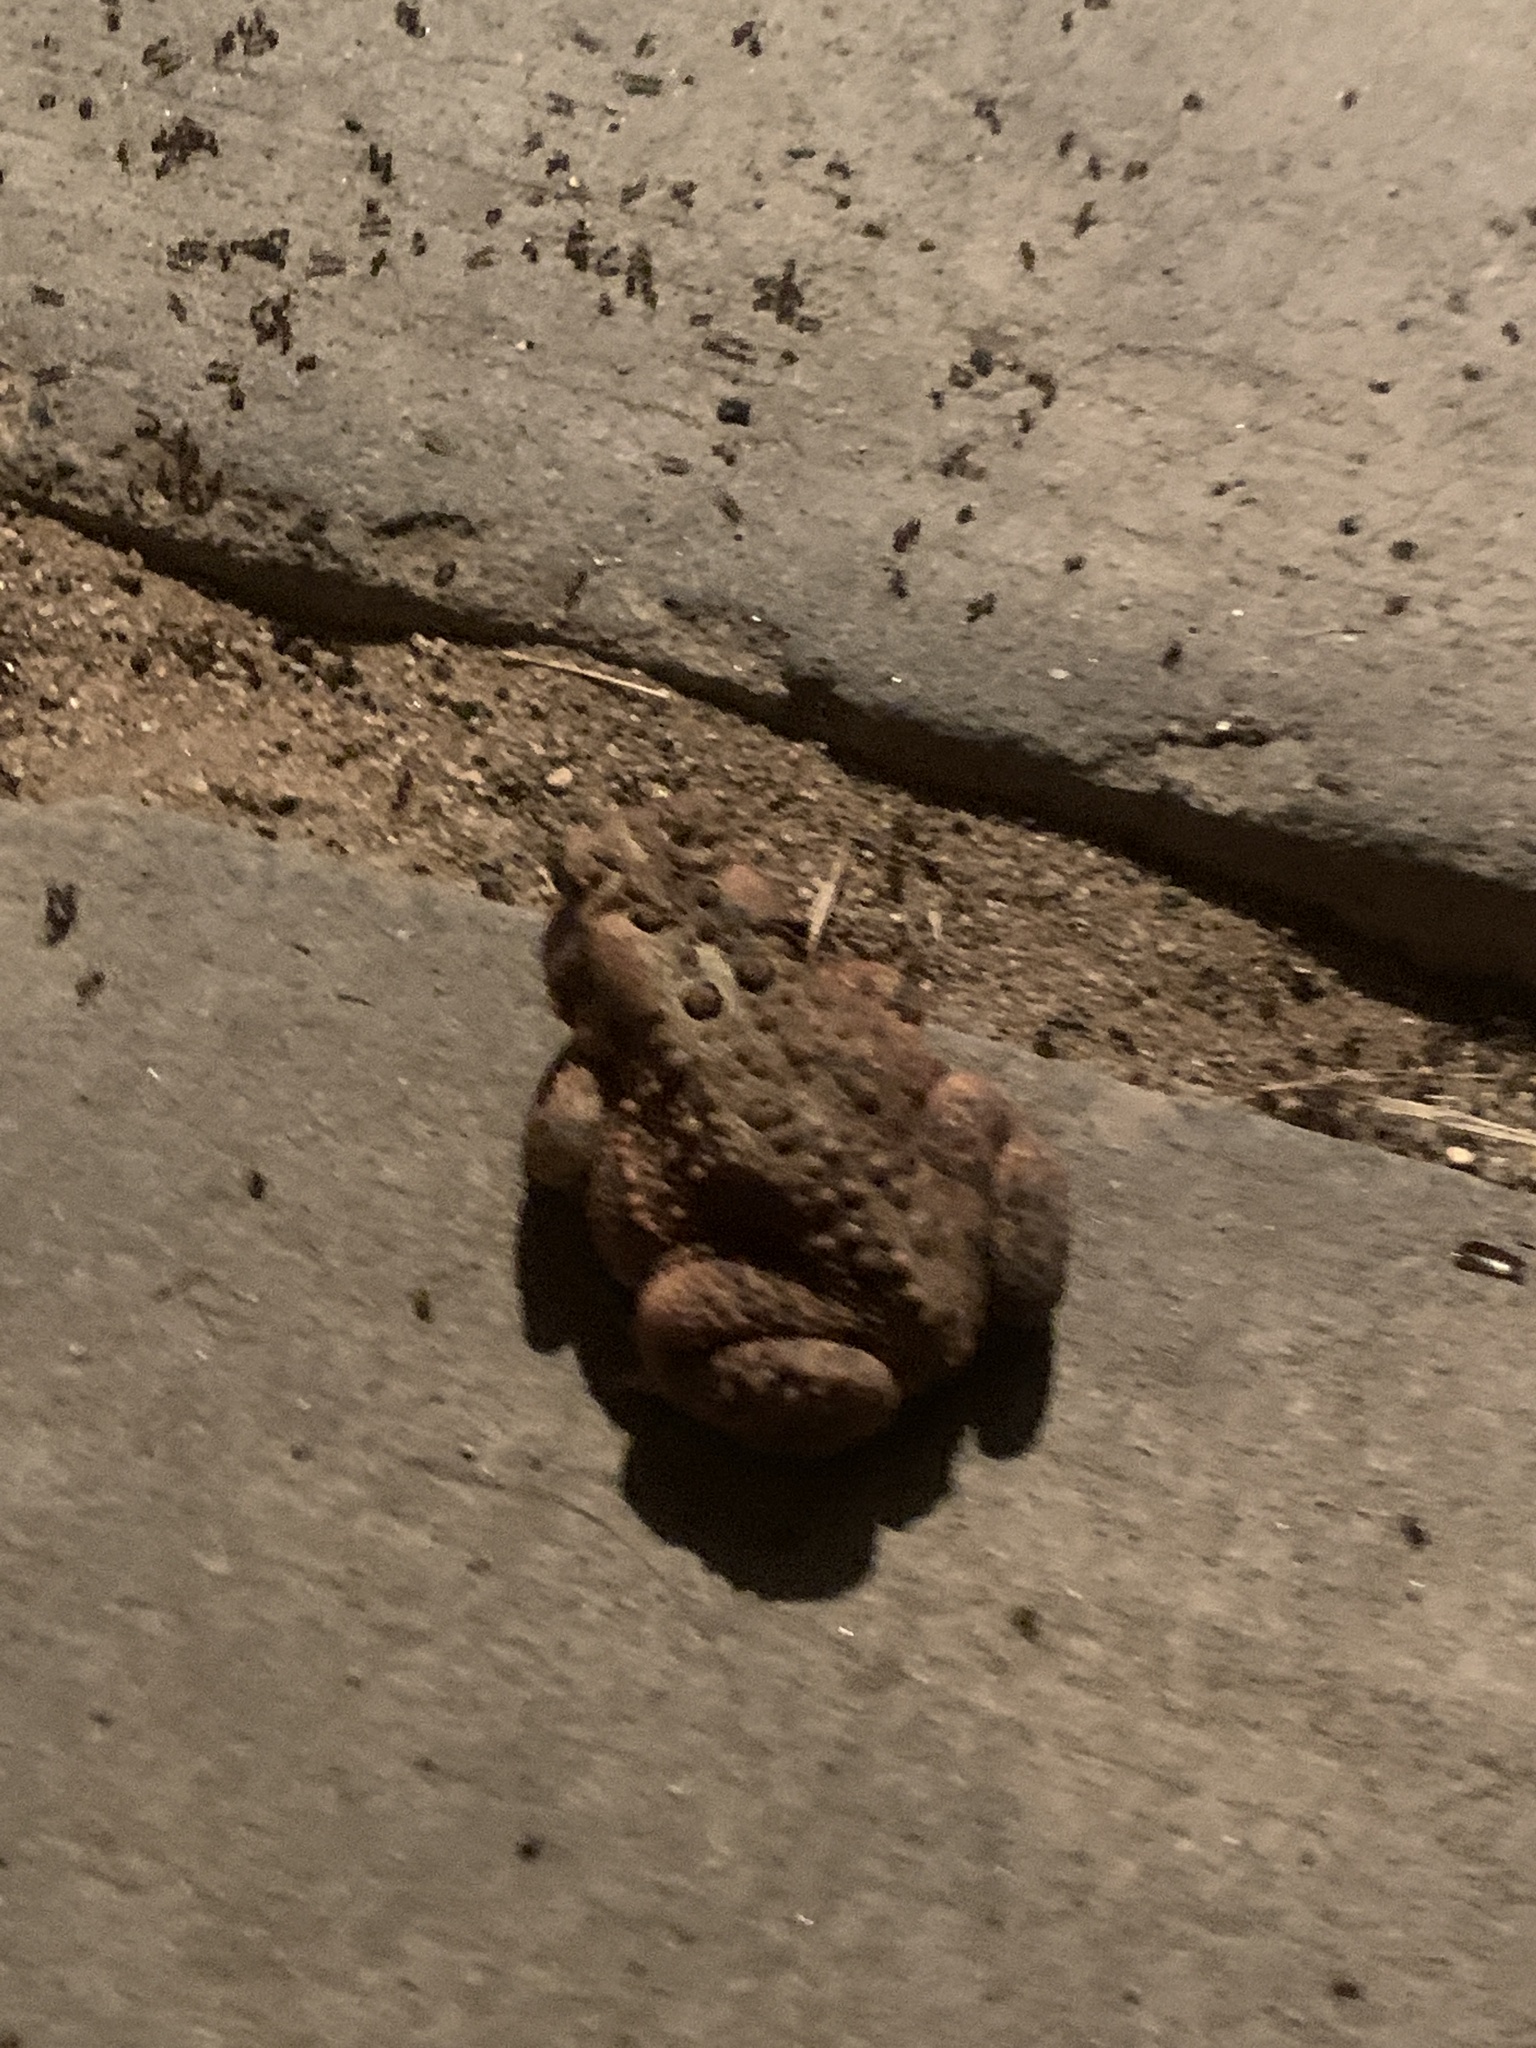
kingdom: Animalia
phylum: Chordata
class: Amphibia
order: Anura
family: Bufonidae
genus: Anaxyrus
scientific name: Anaxyrus americanus
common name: American toad
